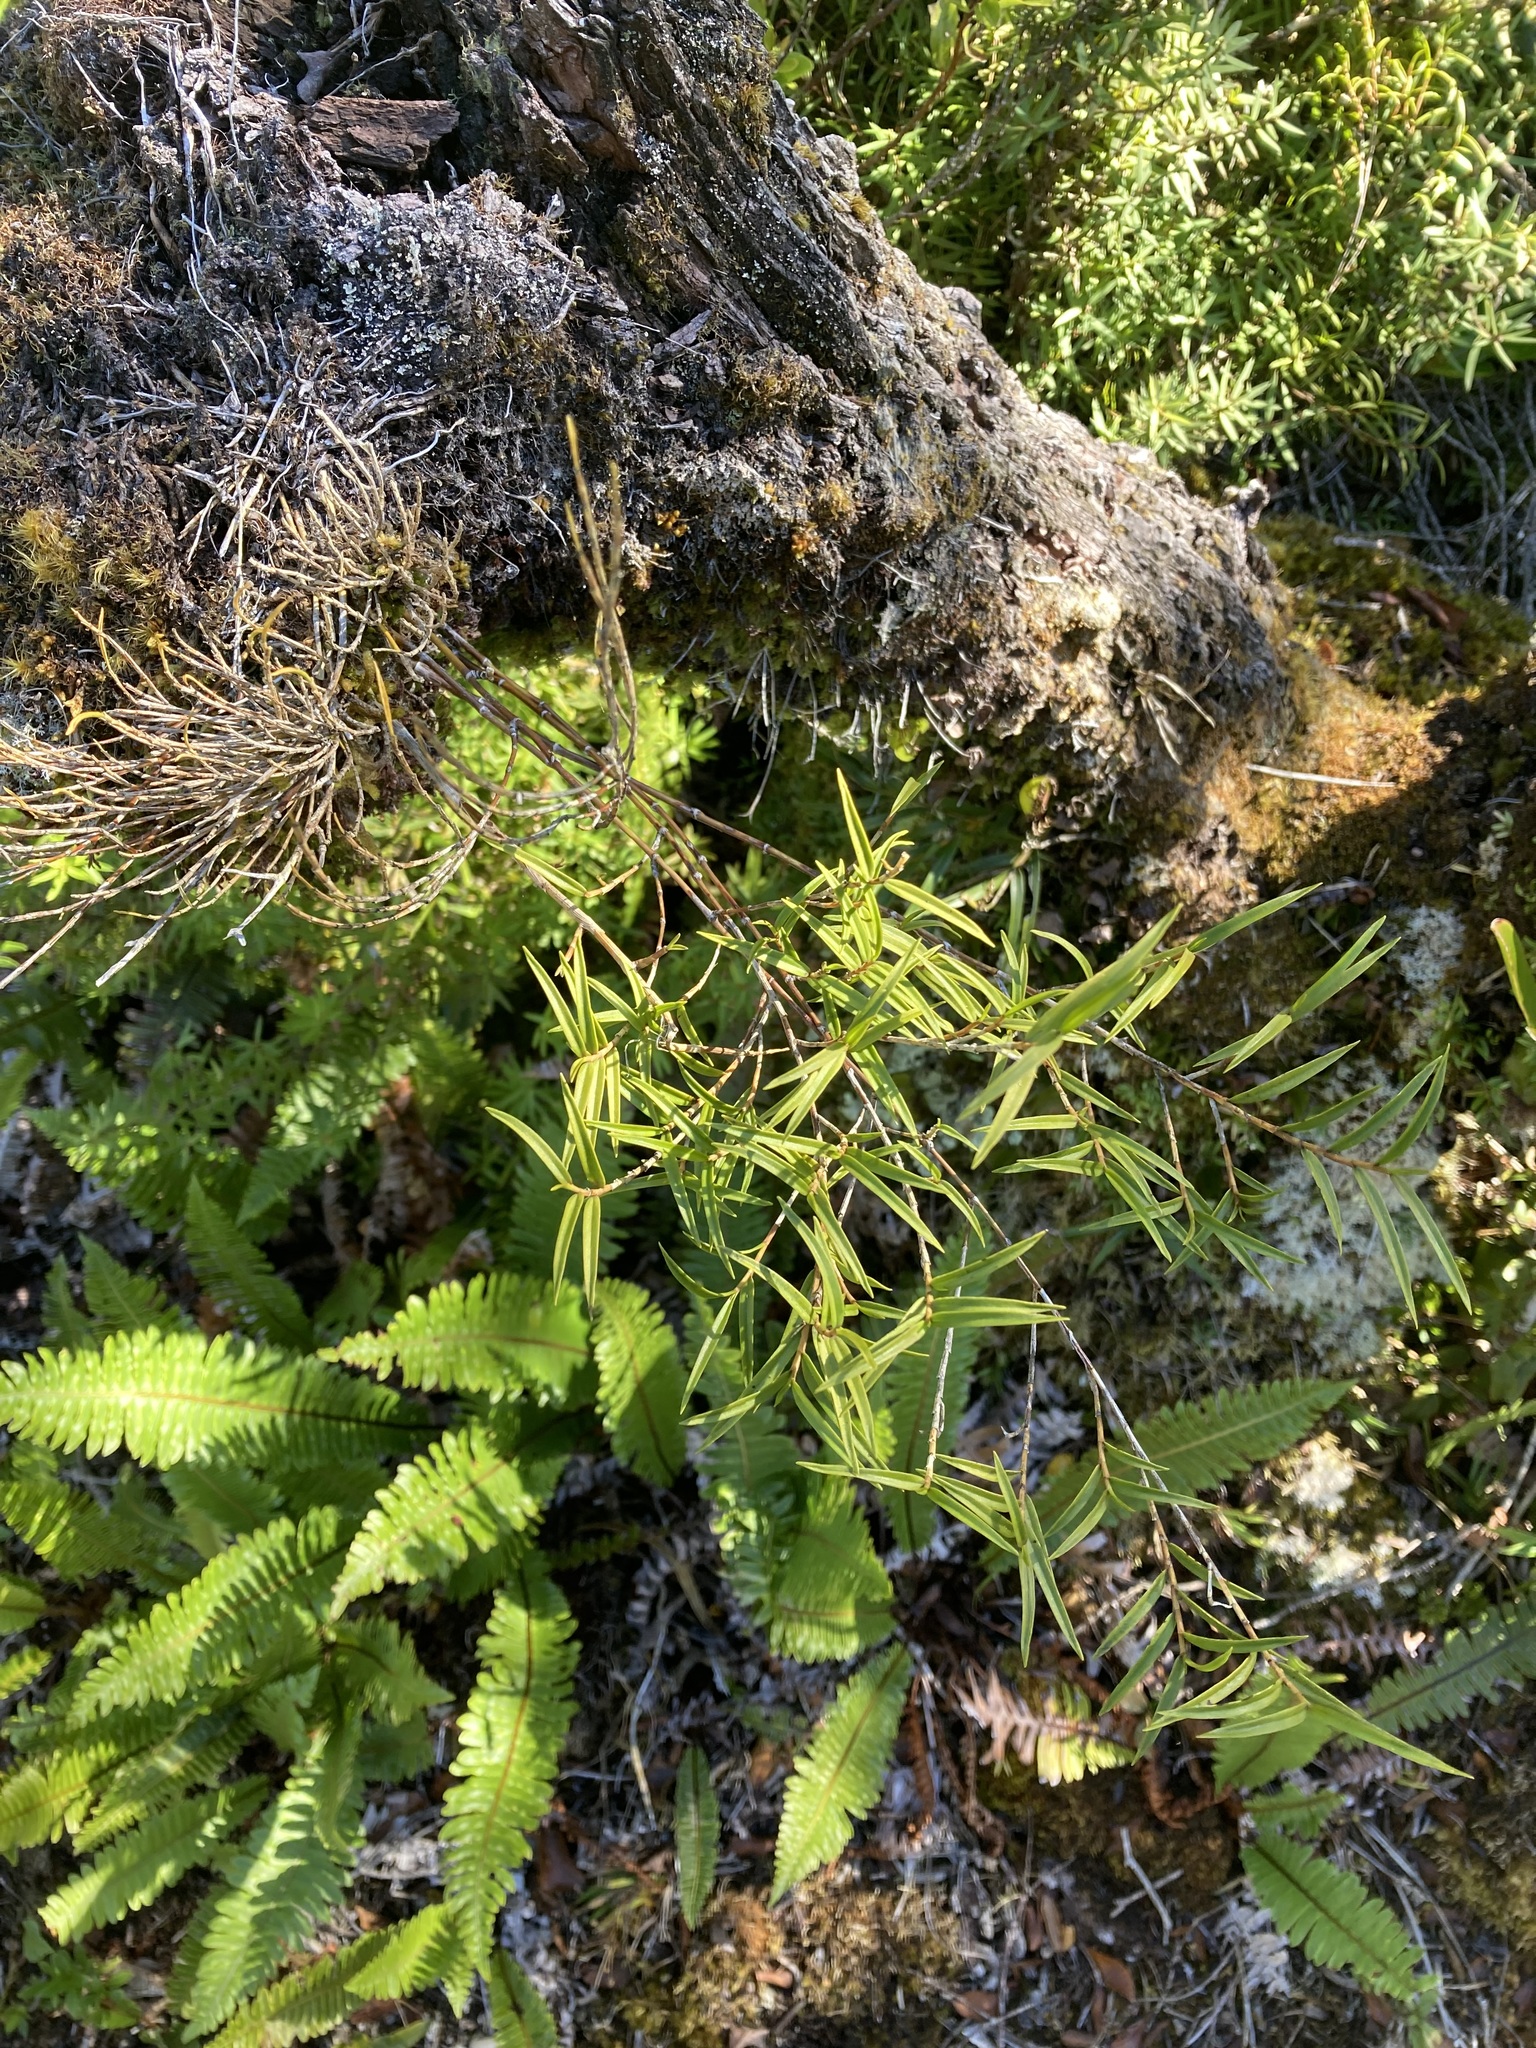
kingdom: Plantae
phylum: Tracheophyta
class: Liliopsida
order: Asparagales
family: Orchidaceae
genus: Dendrobium
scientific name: Dendrobium cunninghamii
